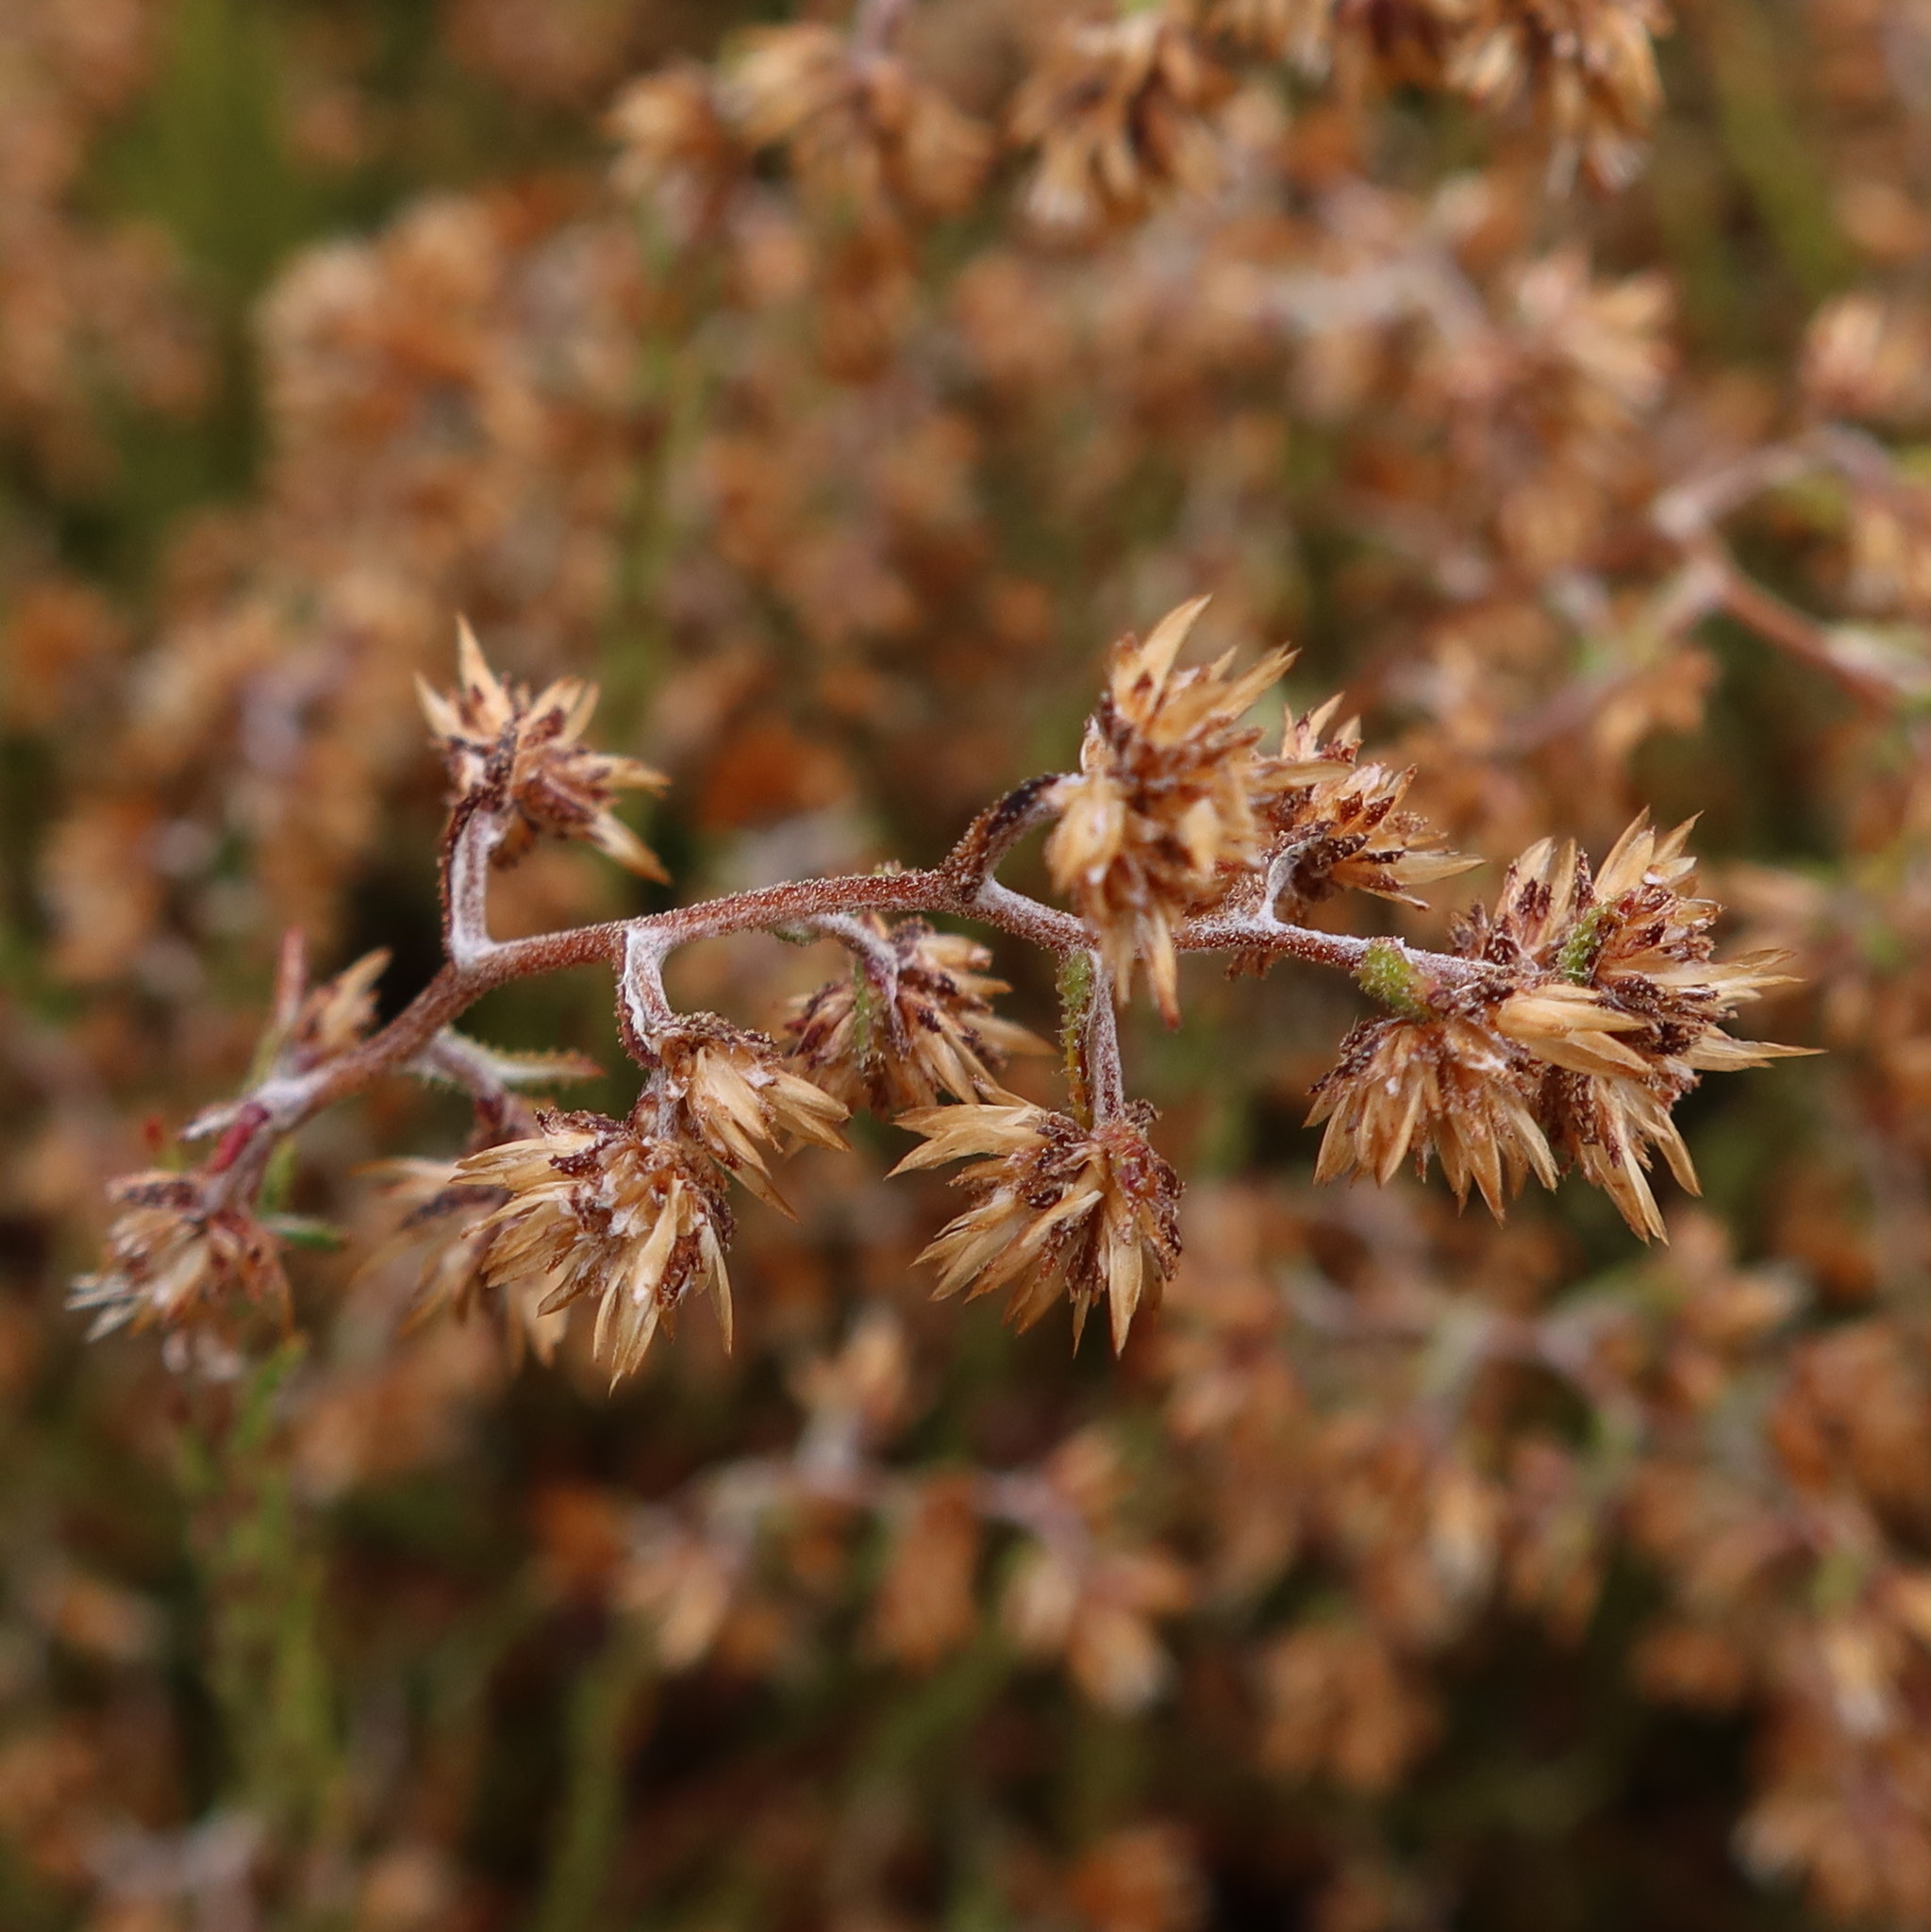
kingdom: Plantae
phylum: Tracheophyta
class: Magnoliopsida
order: Asterales
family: Asteraceae
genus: Myrovernix
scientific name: Myrovernix scaber
